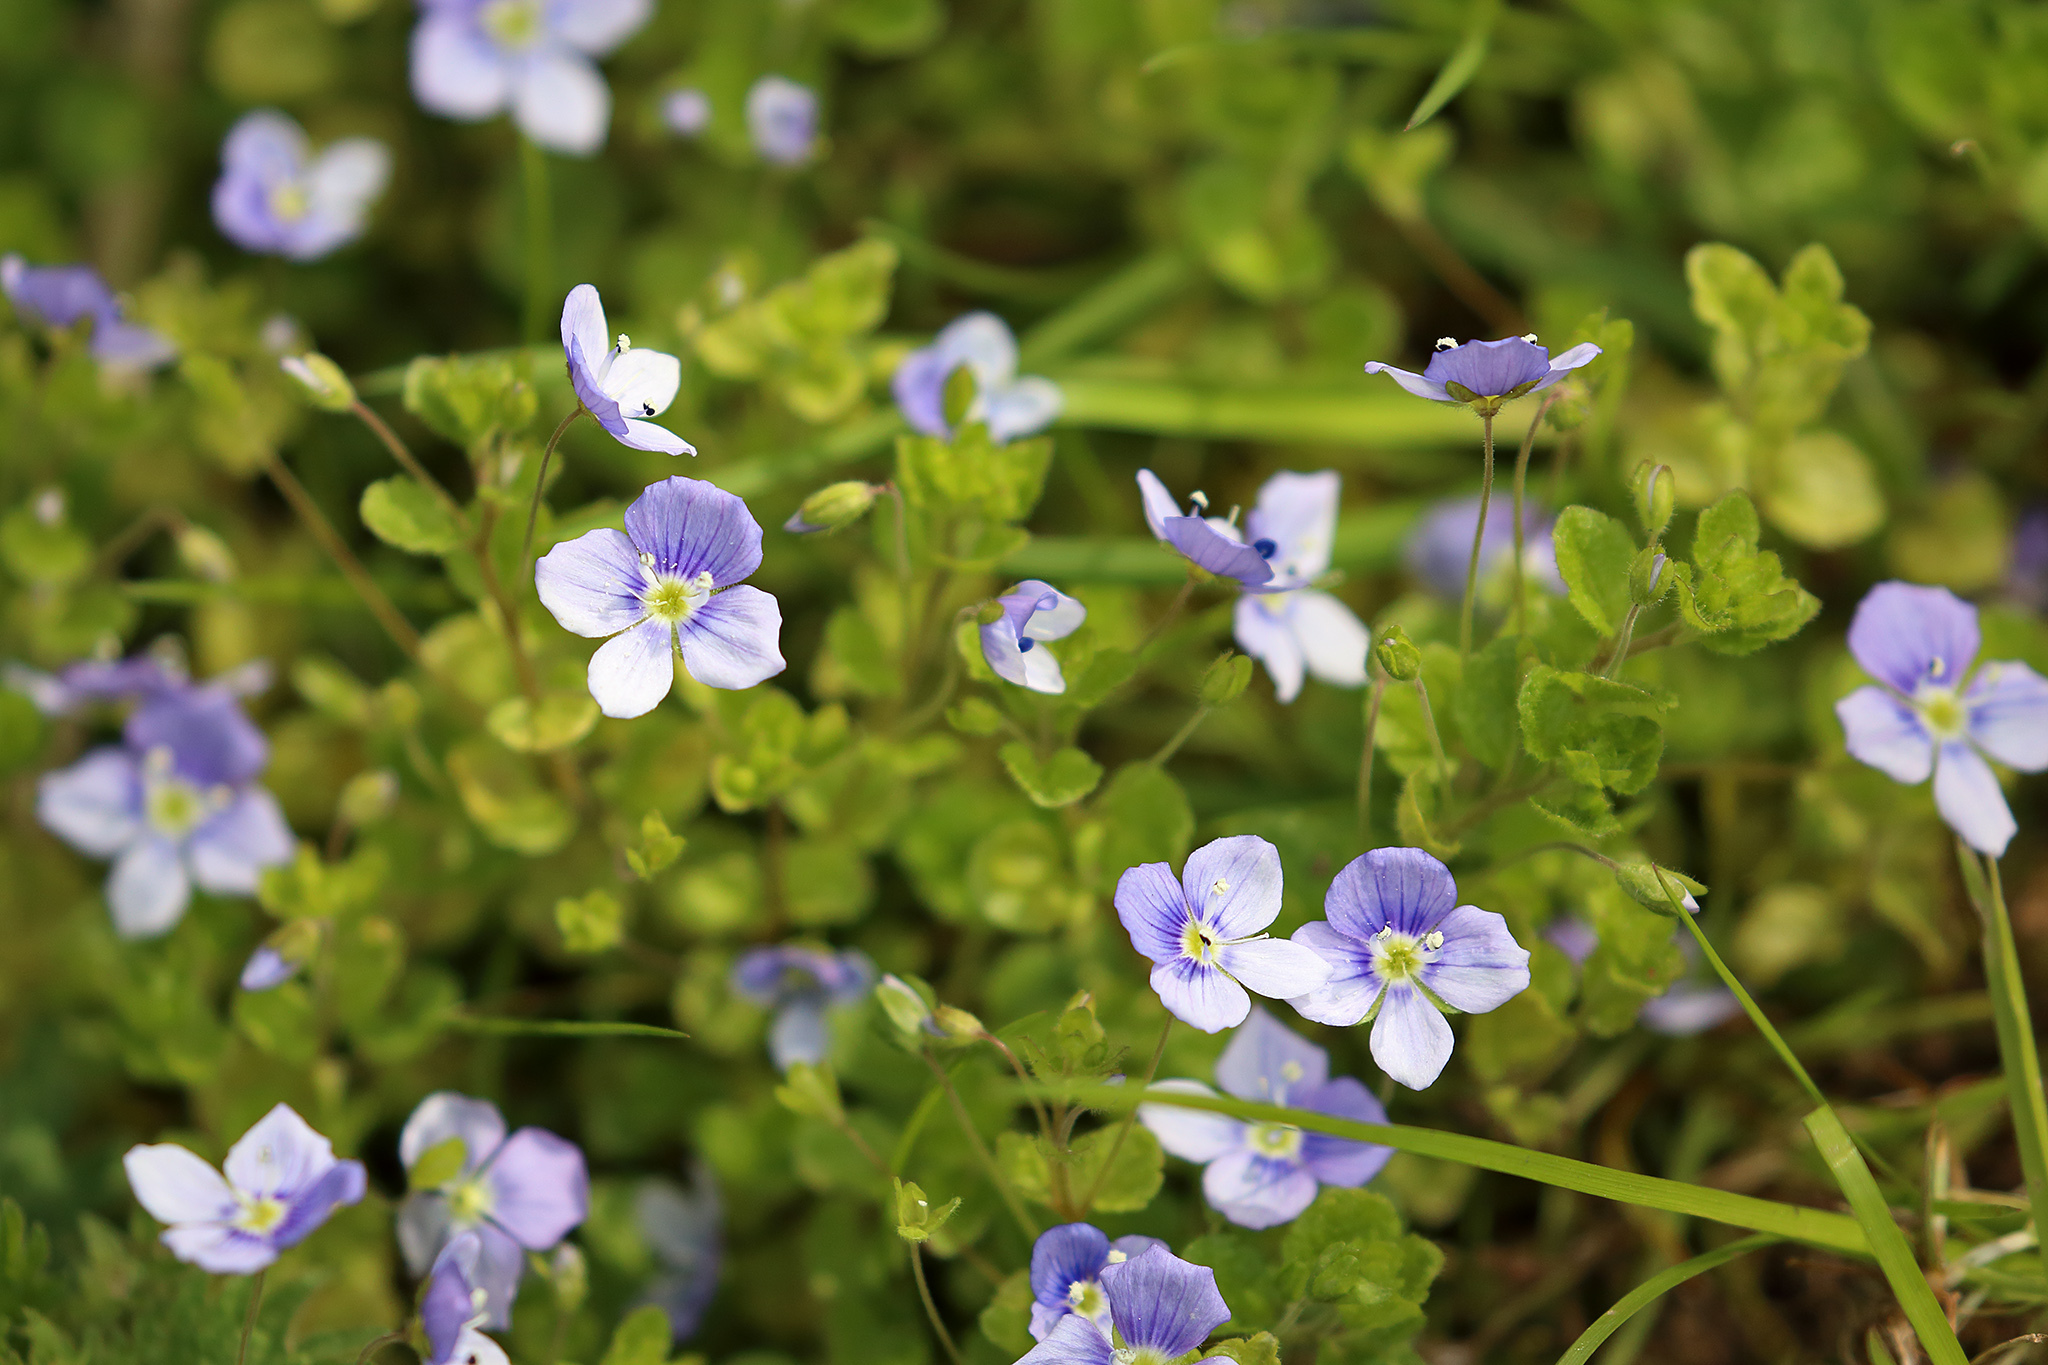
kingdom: Plantae
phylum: Tracheophyta
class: Magnoliopsida
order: Lamiales
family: Plantaginaceae
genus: Veronica
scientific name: Veronica filiformis
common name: Slender speedwell
